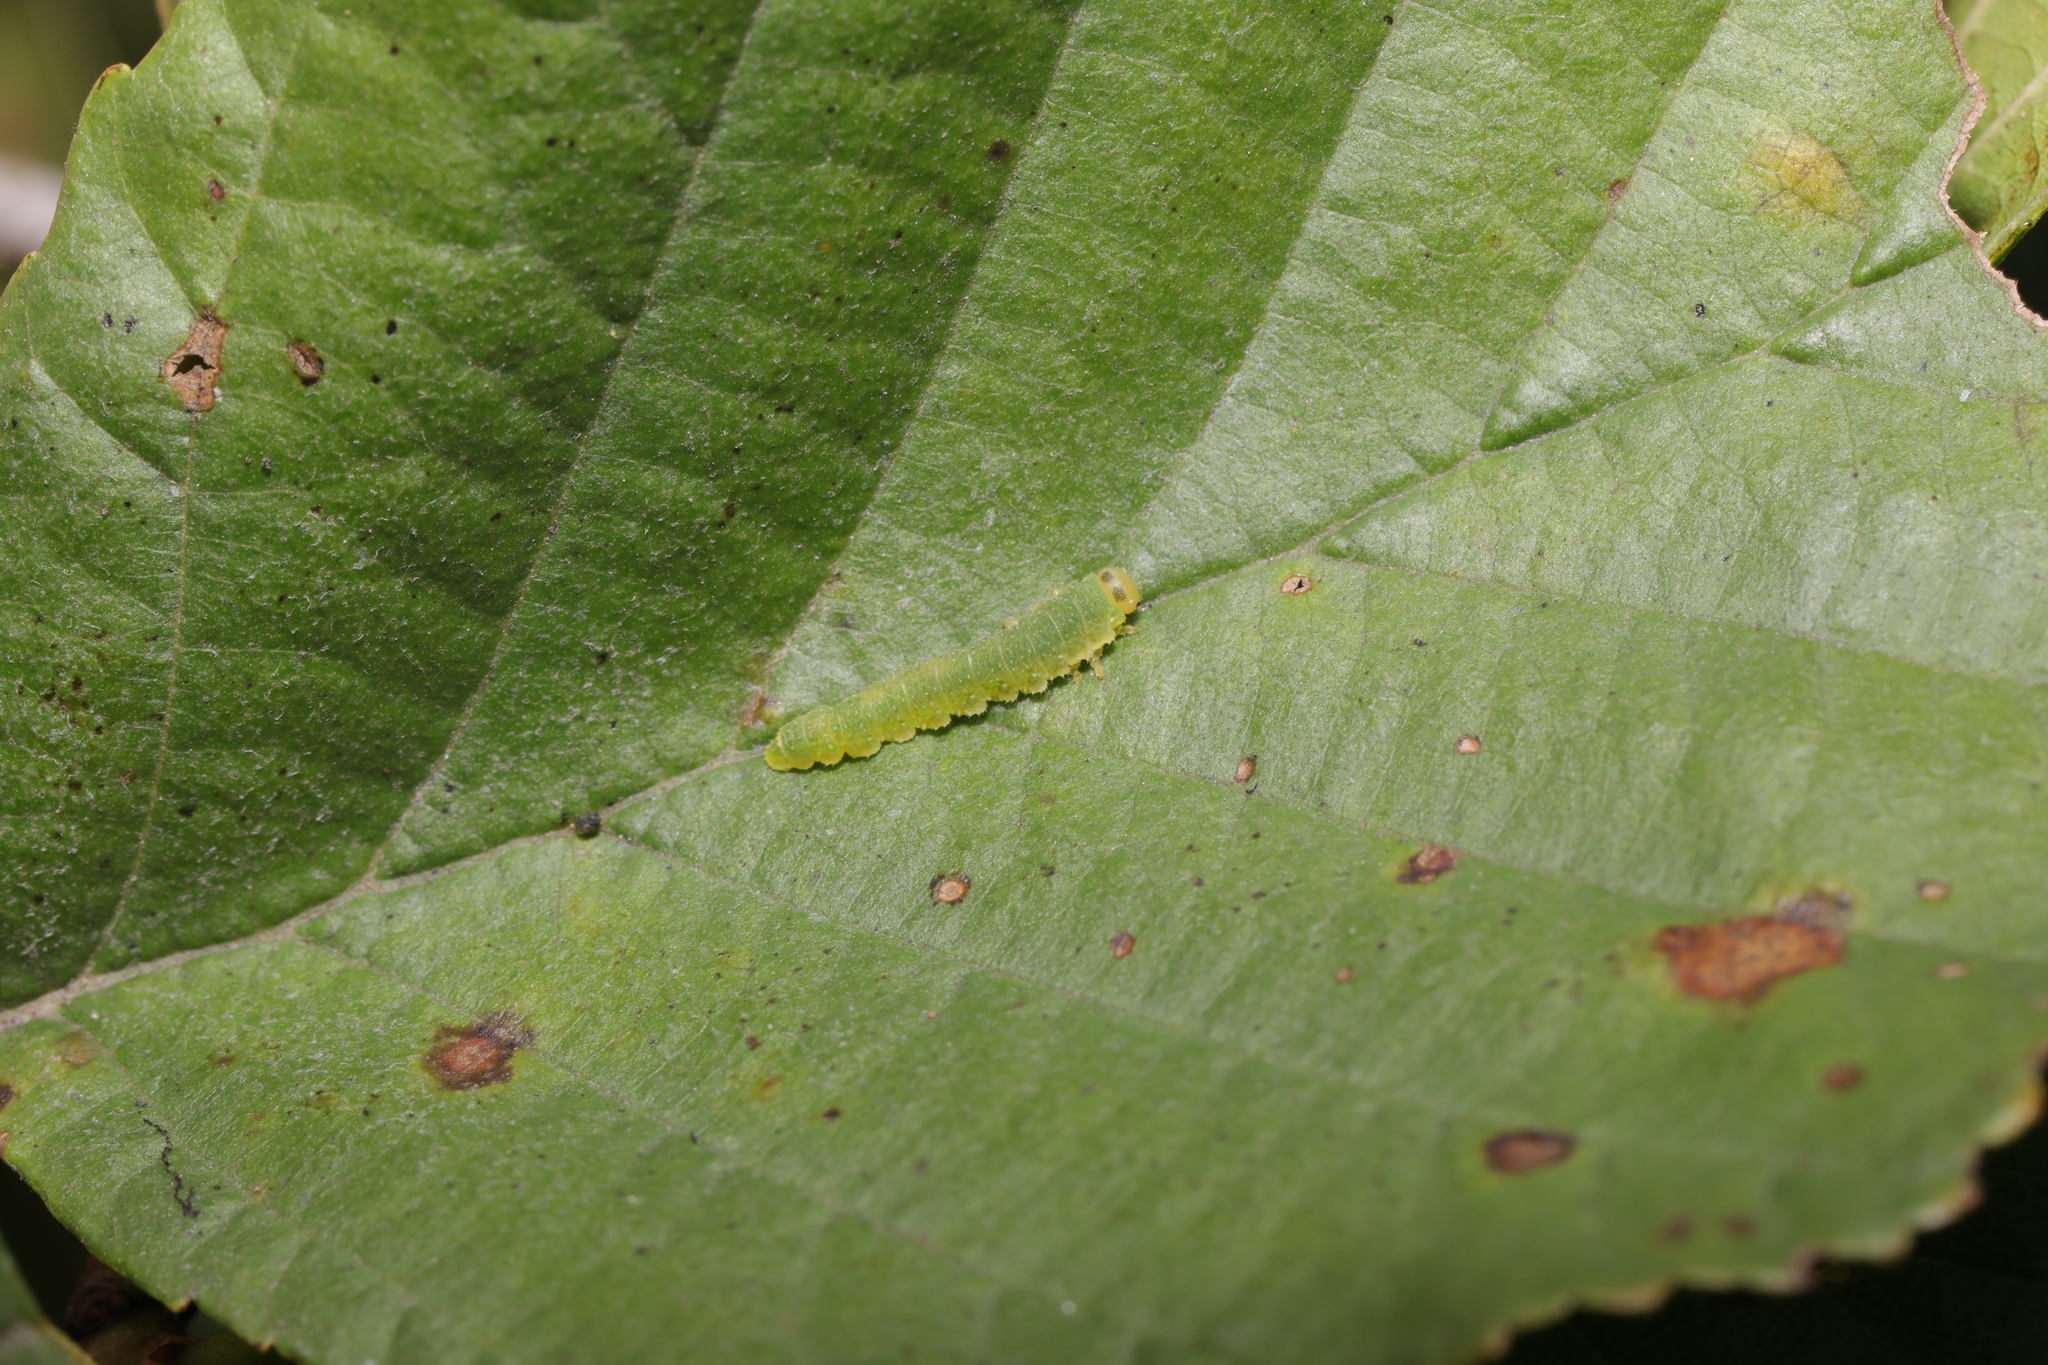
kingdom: Animalia
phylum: Arthropoda
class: Insecta
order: Hymenoptera
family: Tenthredinidae
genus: Nematinus
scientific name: Nematinus steini
